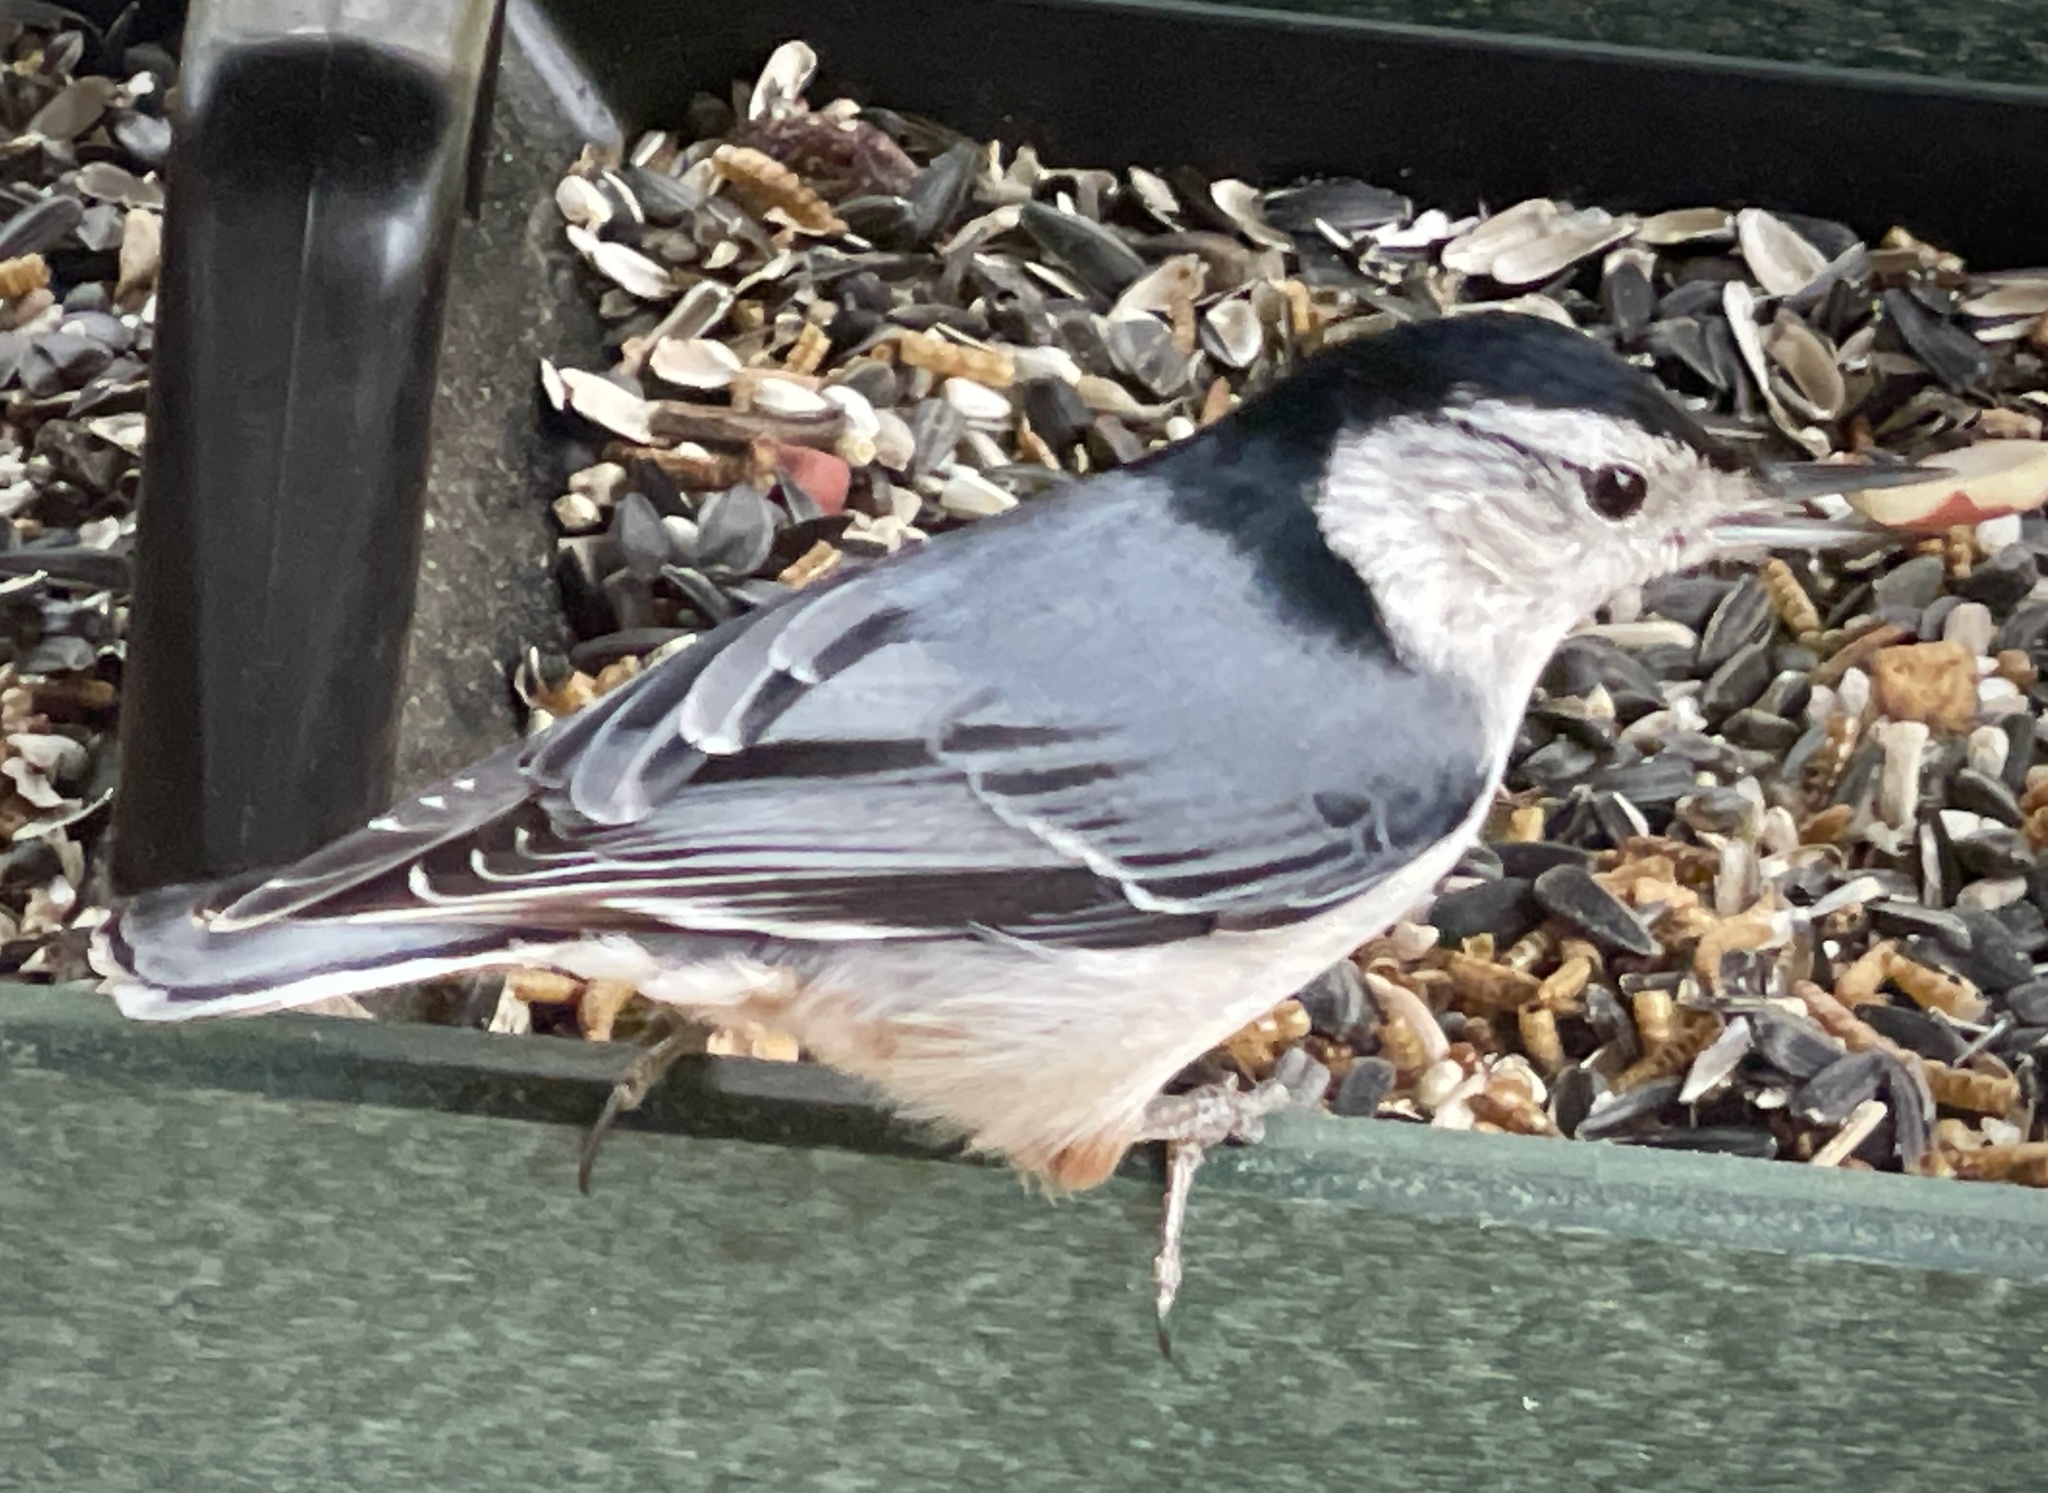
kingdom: Animalia
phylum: Chordata
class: Aves
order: Passeriformes
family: Sittidae
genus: Sitta
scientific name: Sitta carolinensis
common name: White-breasted nuthatch
